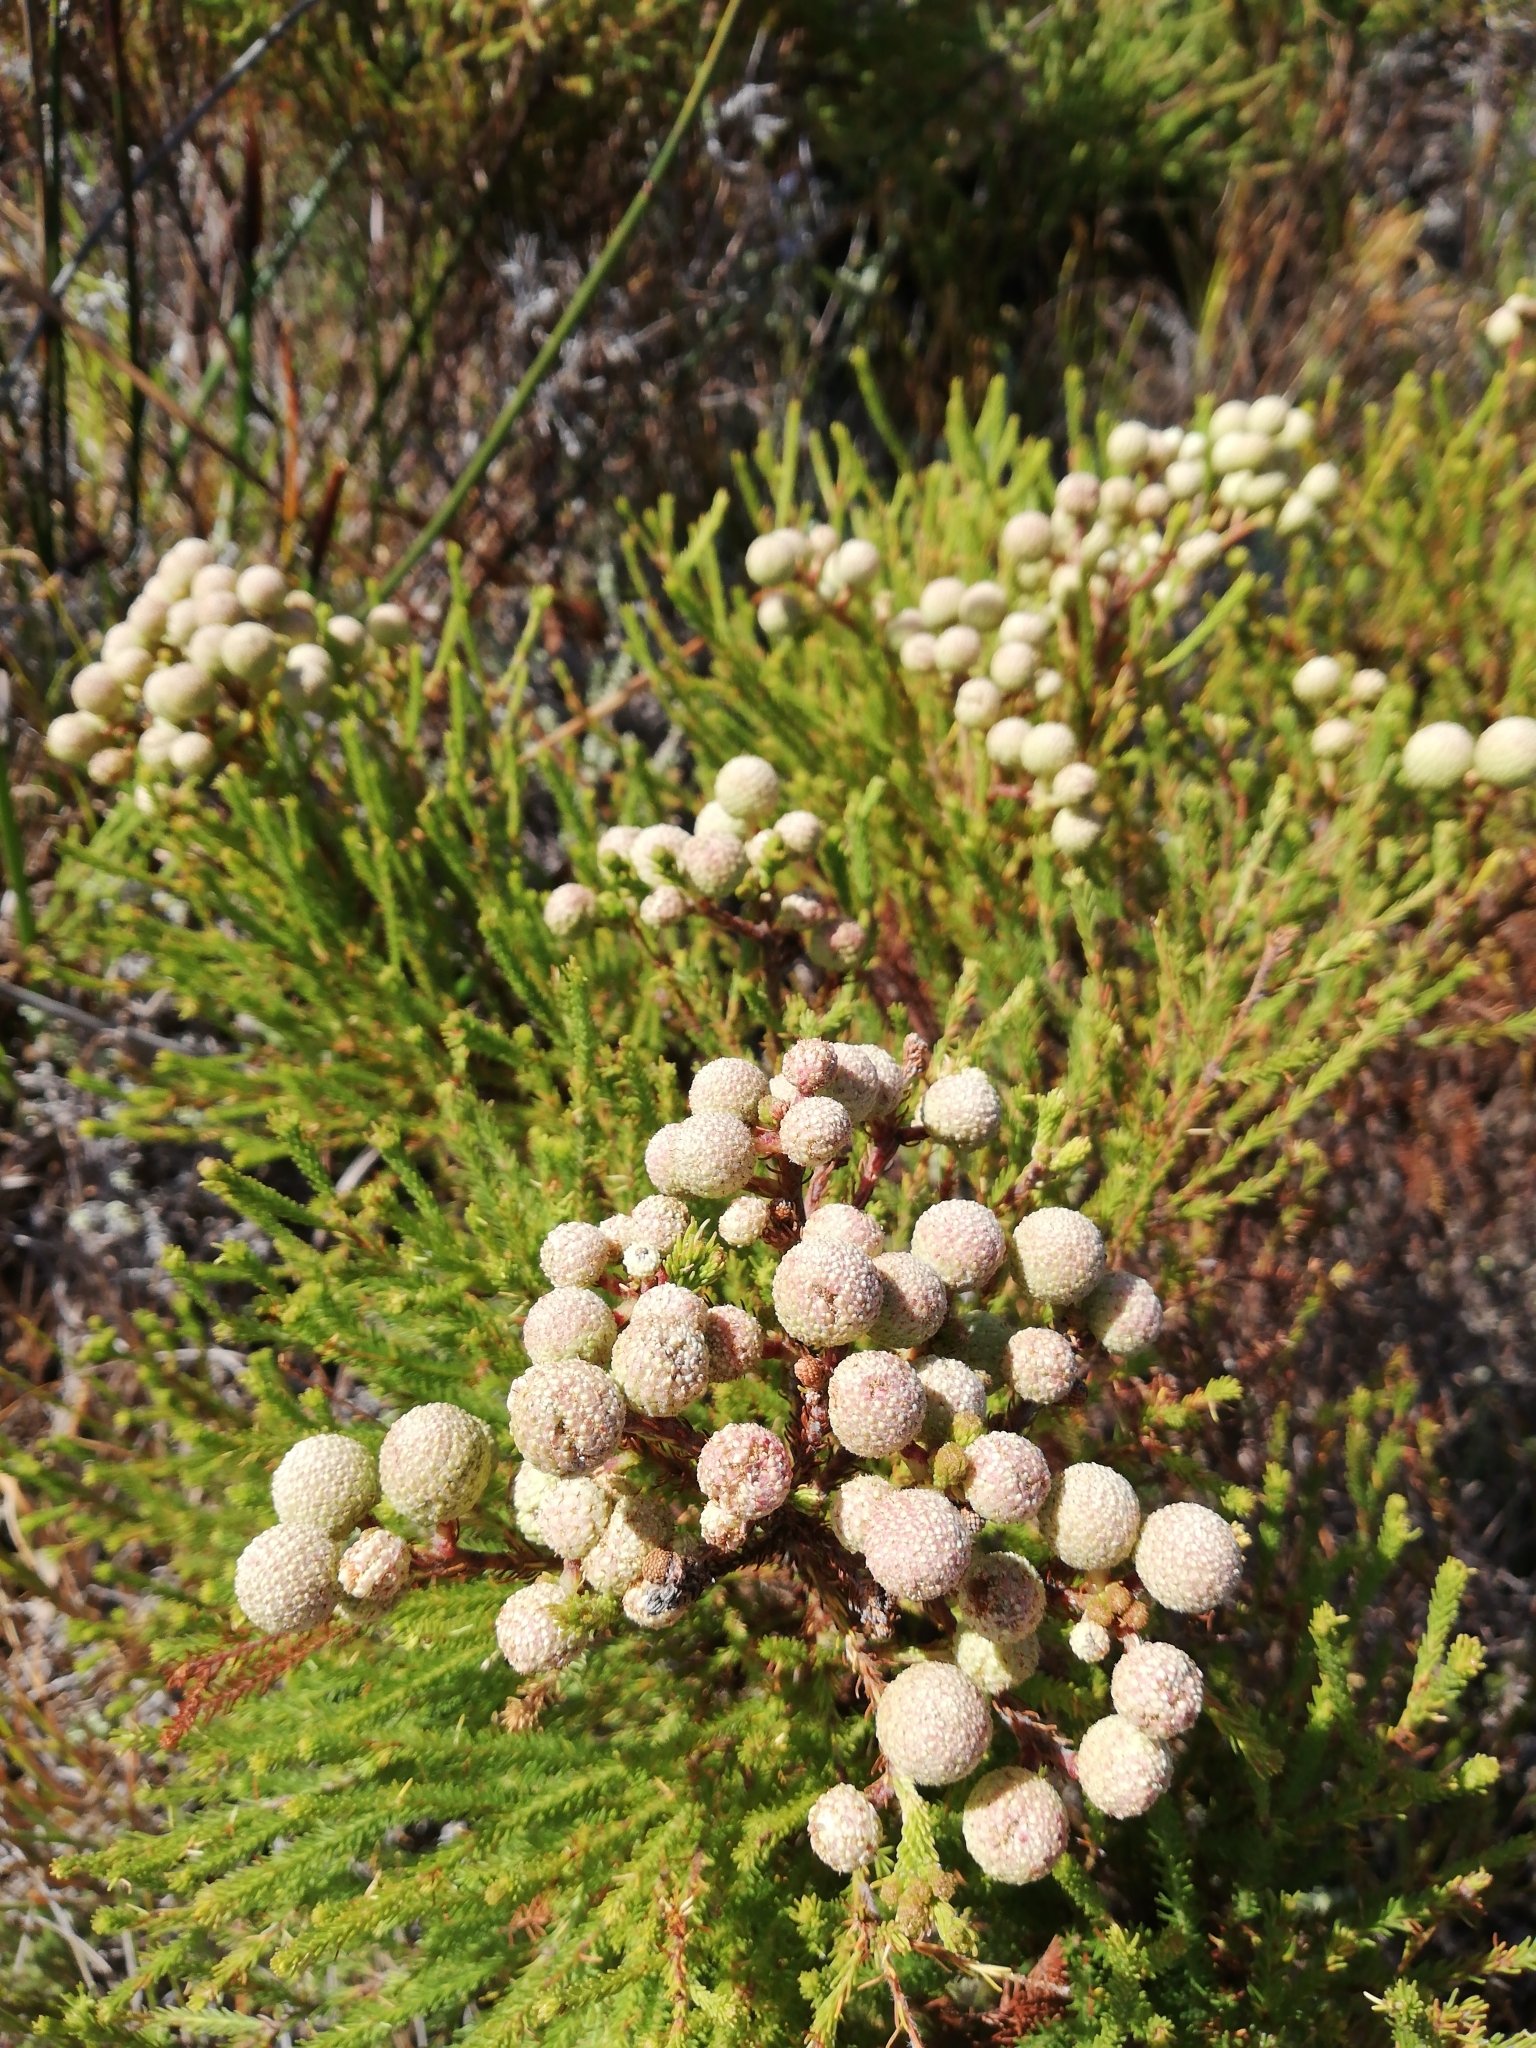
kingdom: Plantae
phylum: Tracheophyta
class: Magnoliopsida
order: Bruniales
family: Bruniaceae
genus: Berzelia
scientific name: Berzelia abrotanoides
